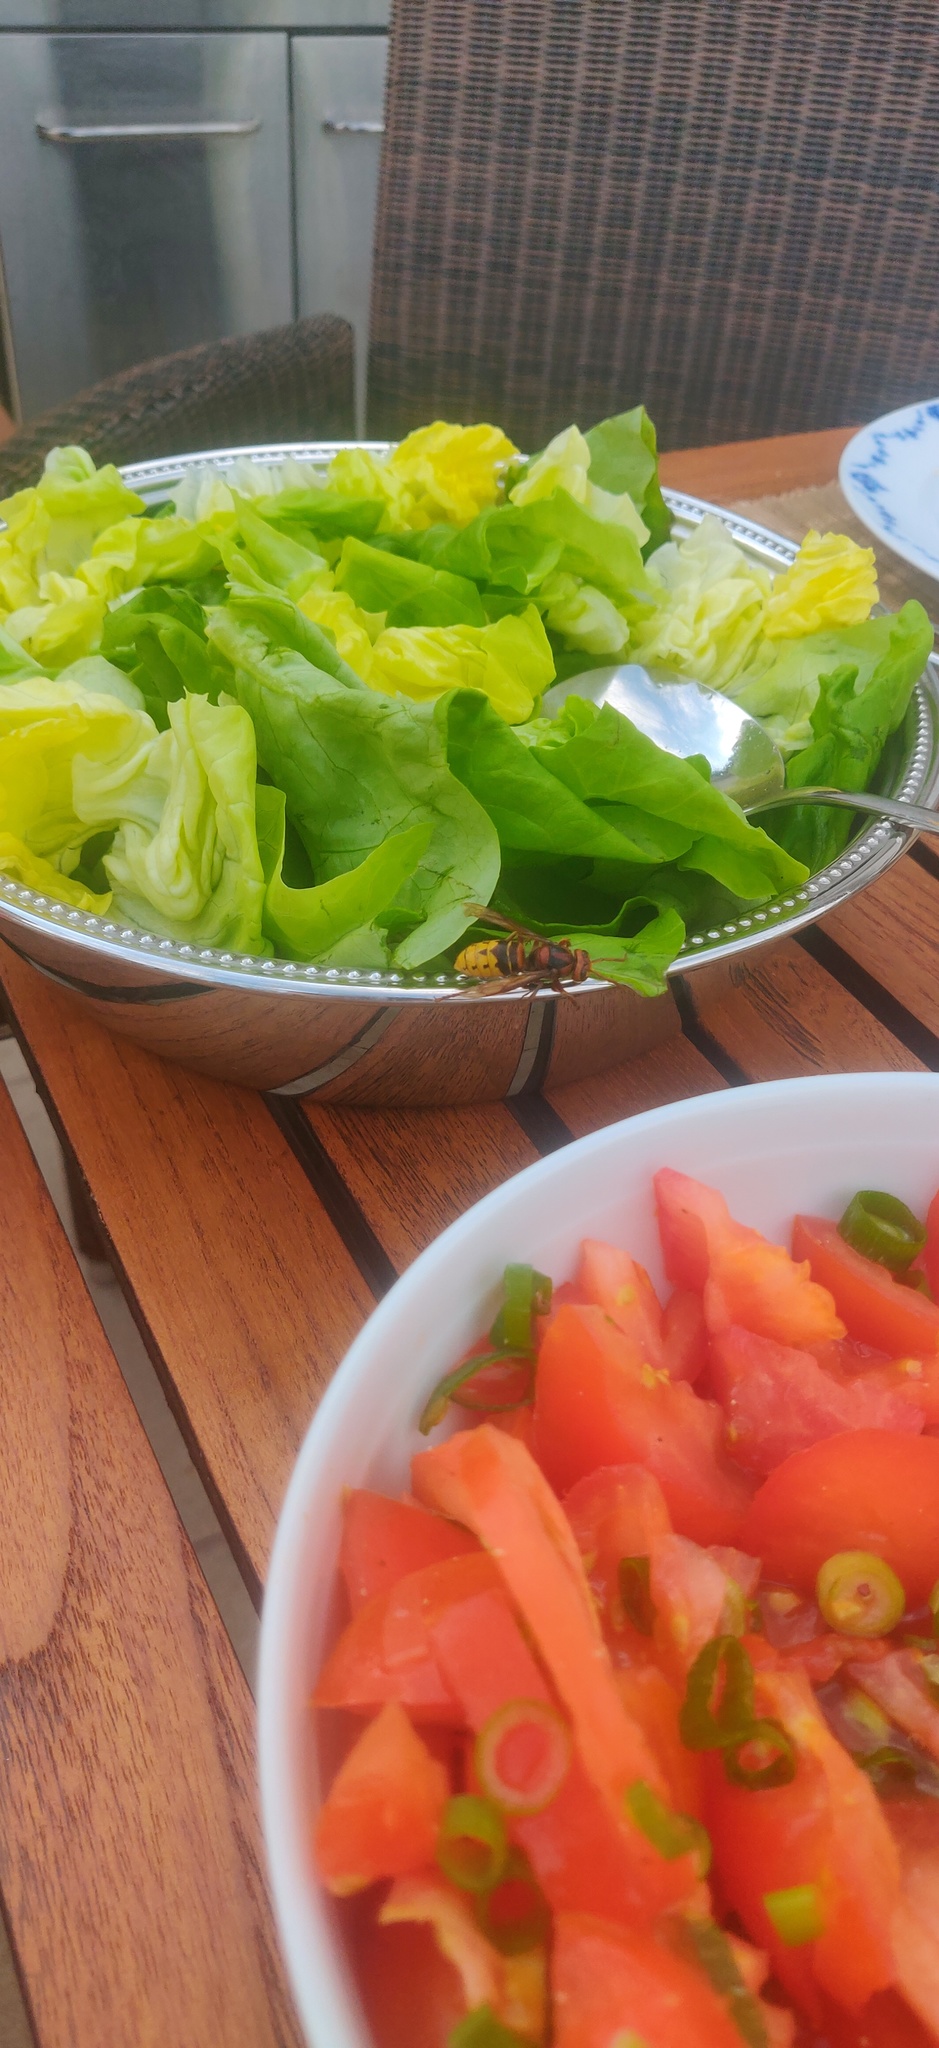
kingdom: Animalia
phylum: Arthropoda
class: Insecta
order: Hymenoptera
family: Vespidae
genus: Vespa
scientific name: Vespa crabro
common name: Hornet
